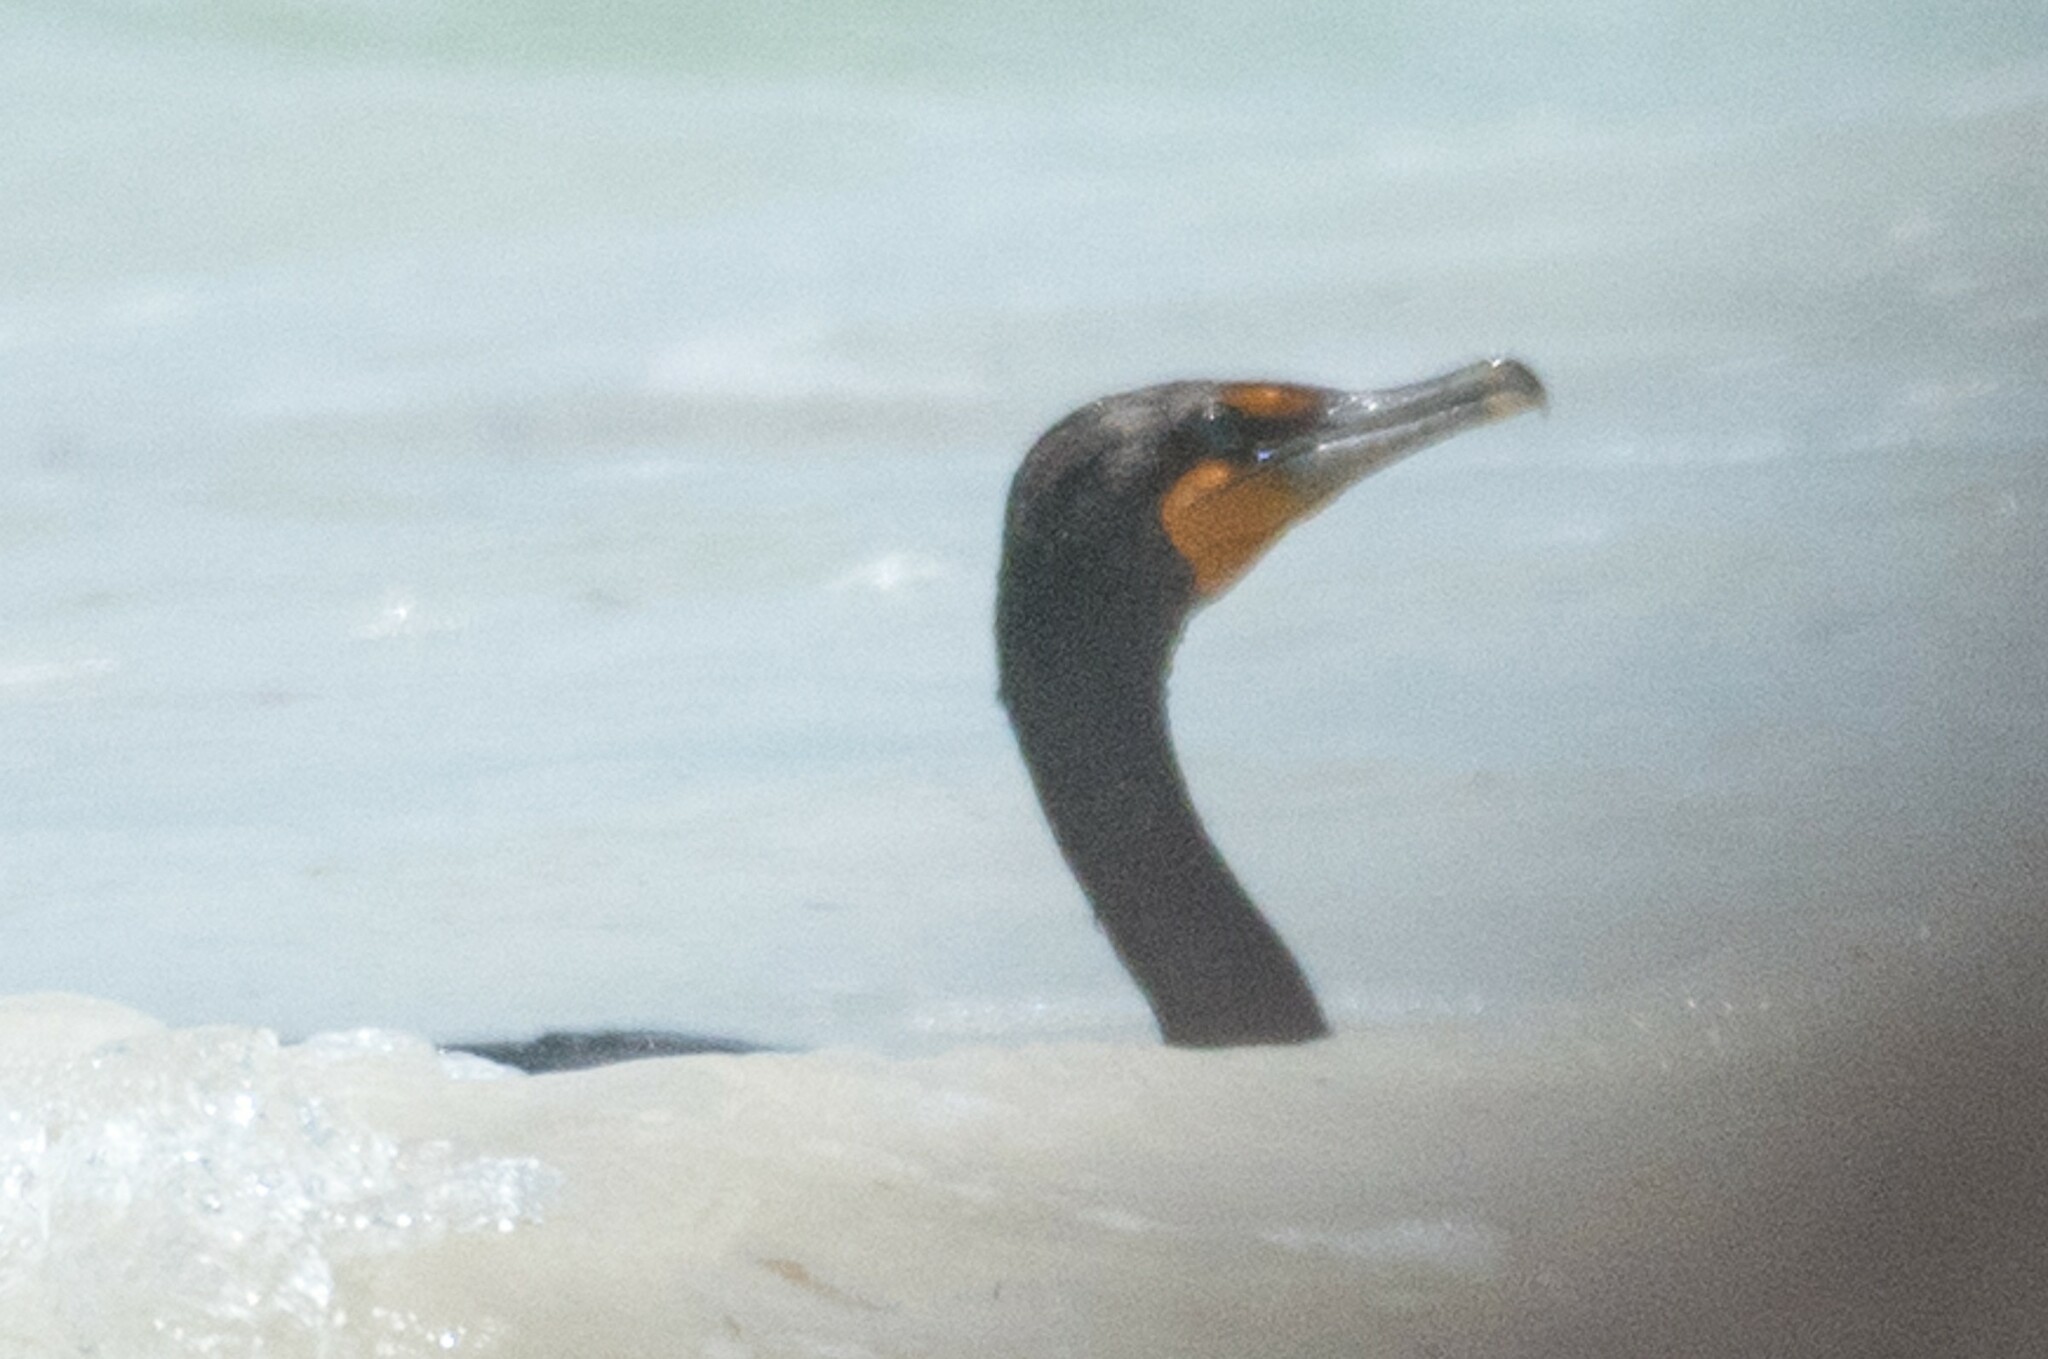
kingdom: Animalia
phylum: Chordata
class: Aves
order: Suliformes
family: Phalacrocoracidae
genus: Phalacrocorax
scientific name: Phalacrocorax auritus
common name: Double-crested cormorant
